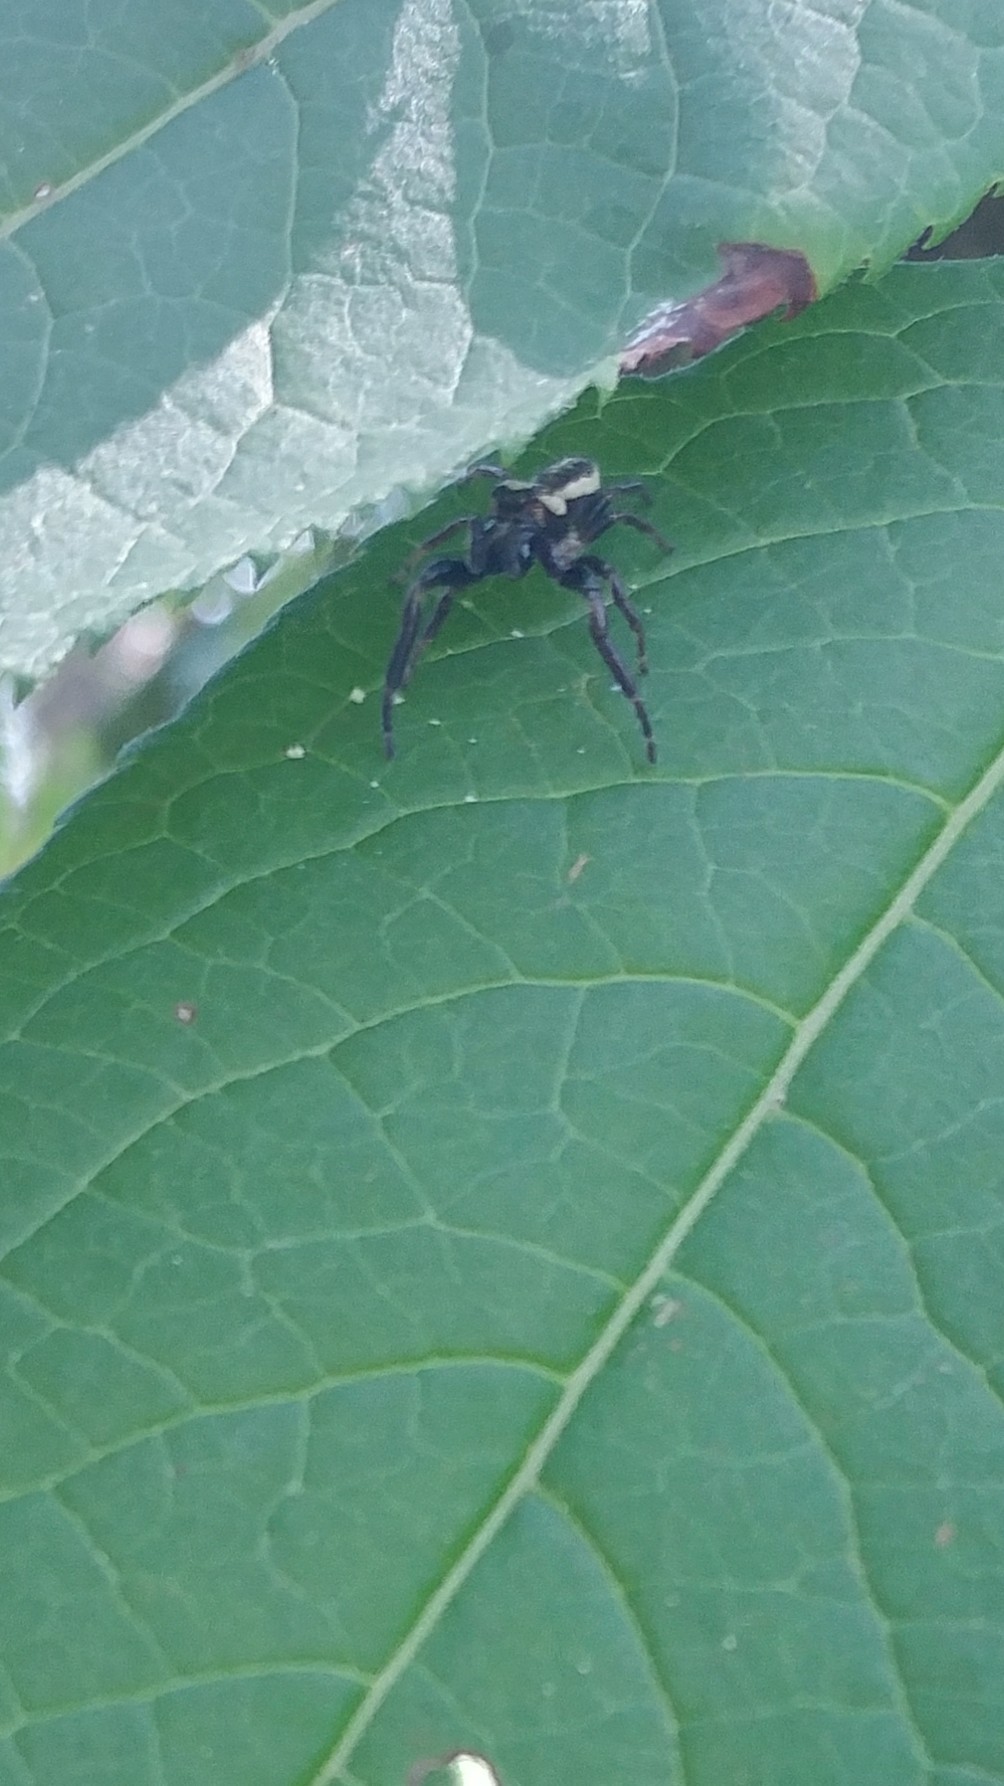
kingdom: Animalia
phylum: Arthropoda
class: Arachnida
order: Araneae
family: Salticidae
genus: Eris
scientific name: Eris militaris
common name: Bronze jumper
